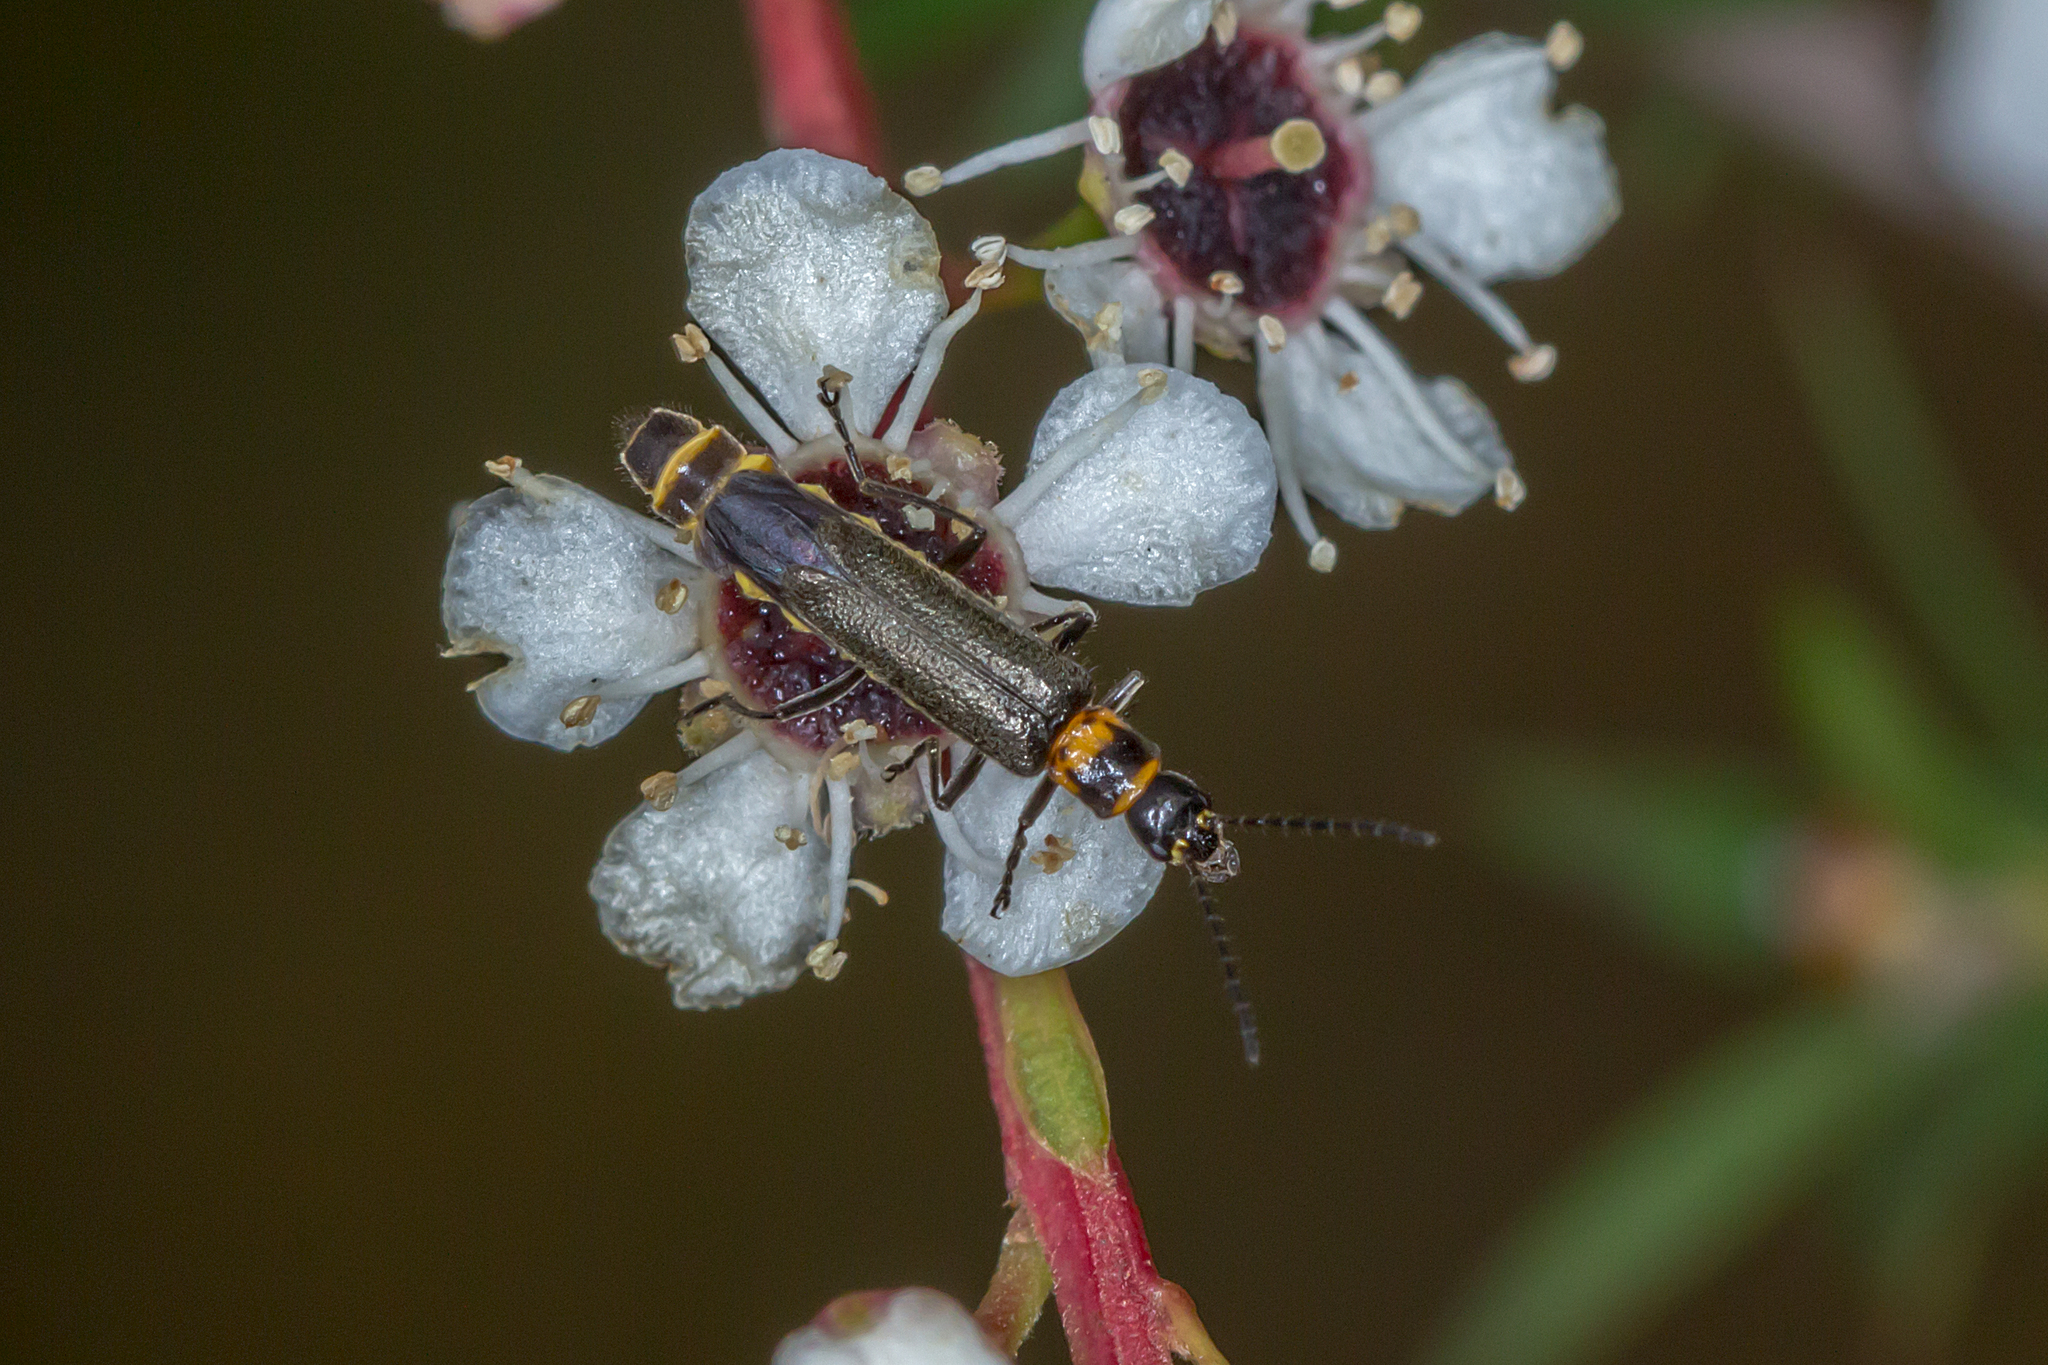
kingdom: Animalia
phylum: Arthropoda
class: Insecta
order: Coleoptera
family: Cantharidae
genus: Chauliognathus
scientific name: Chauliognathus
